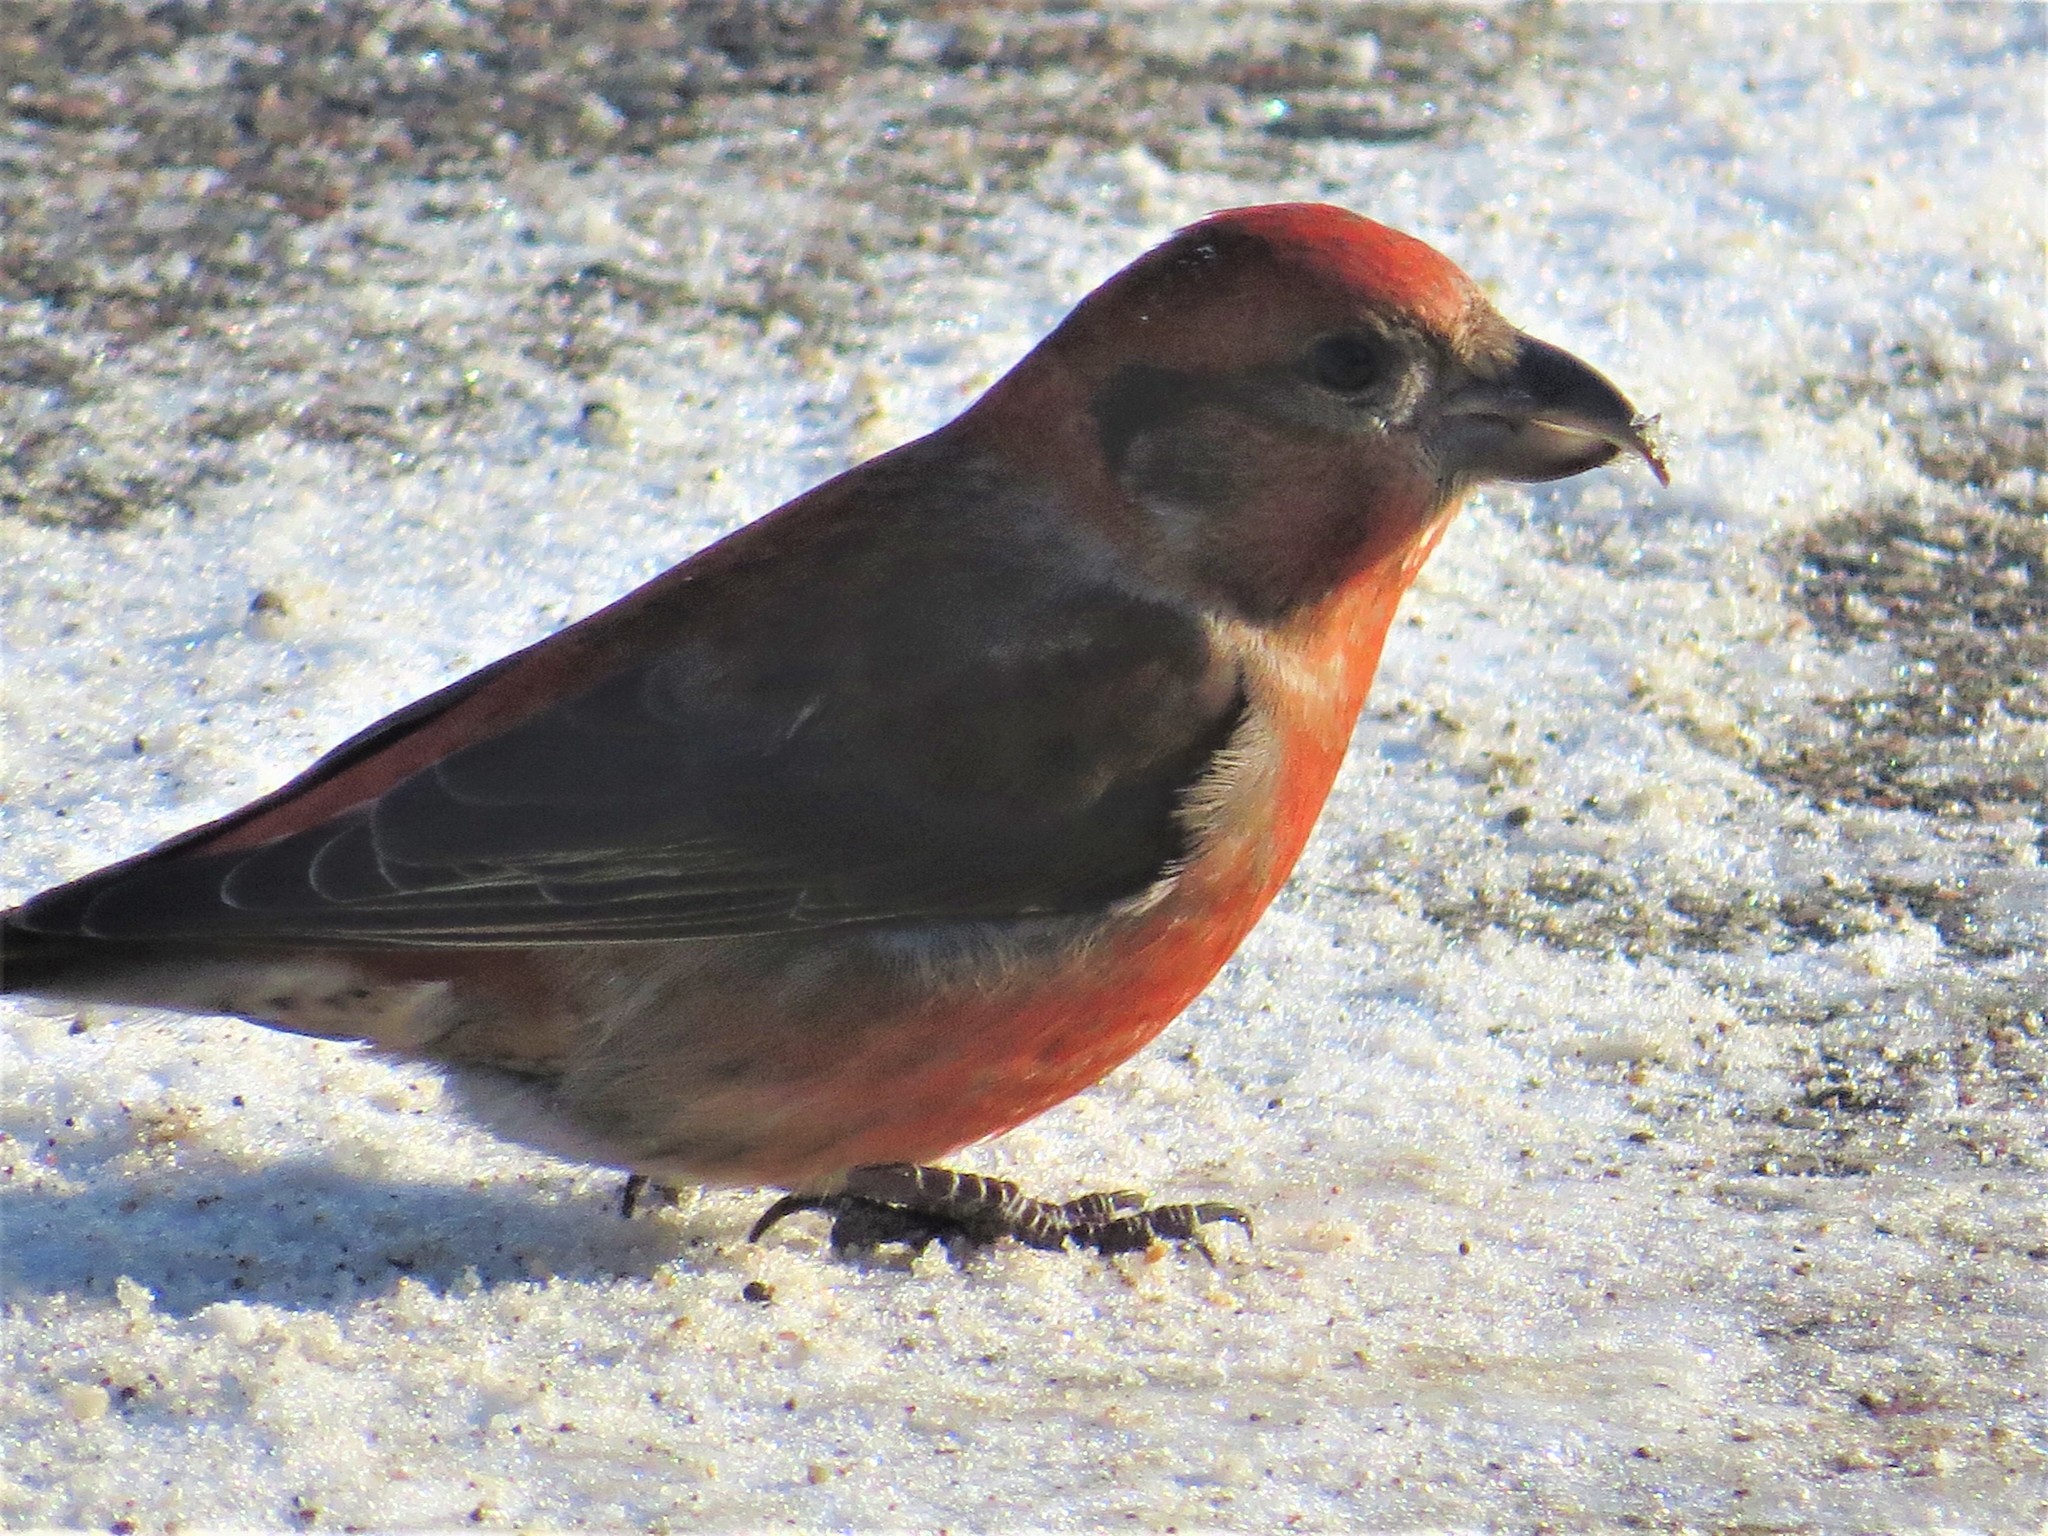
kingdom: Animalia
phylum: Chordata
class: Aves
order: Passeriformes
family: Fringillidae
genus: Loxia
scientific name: Loxia curvirostra
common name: Red crossbill
